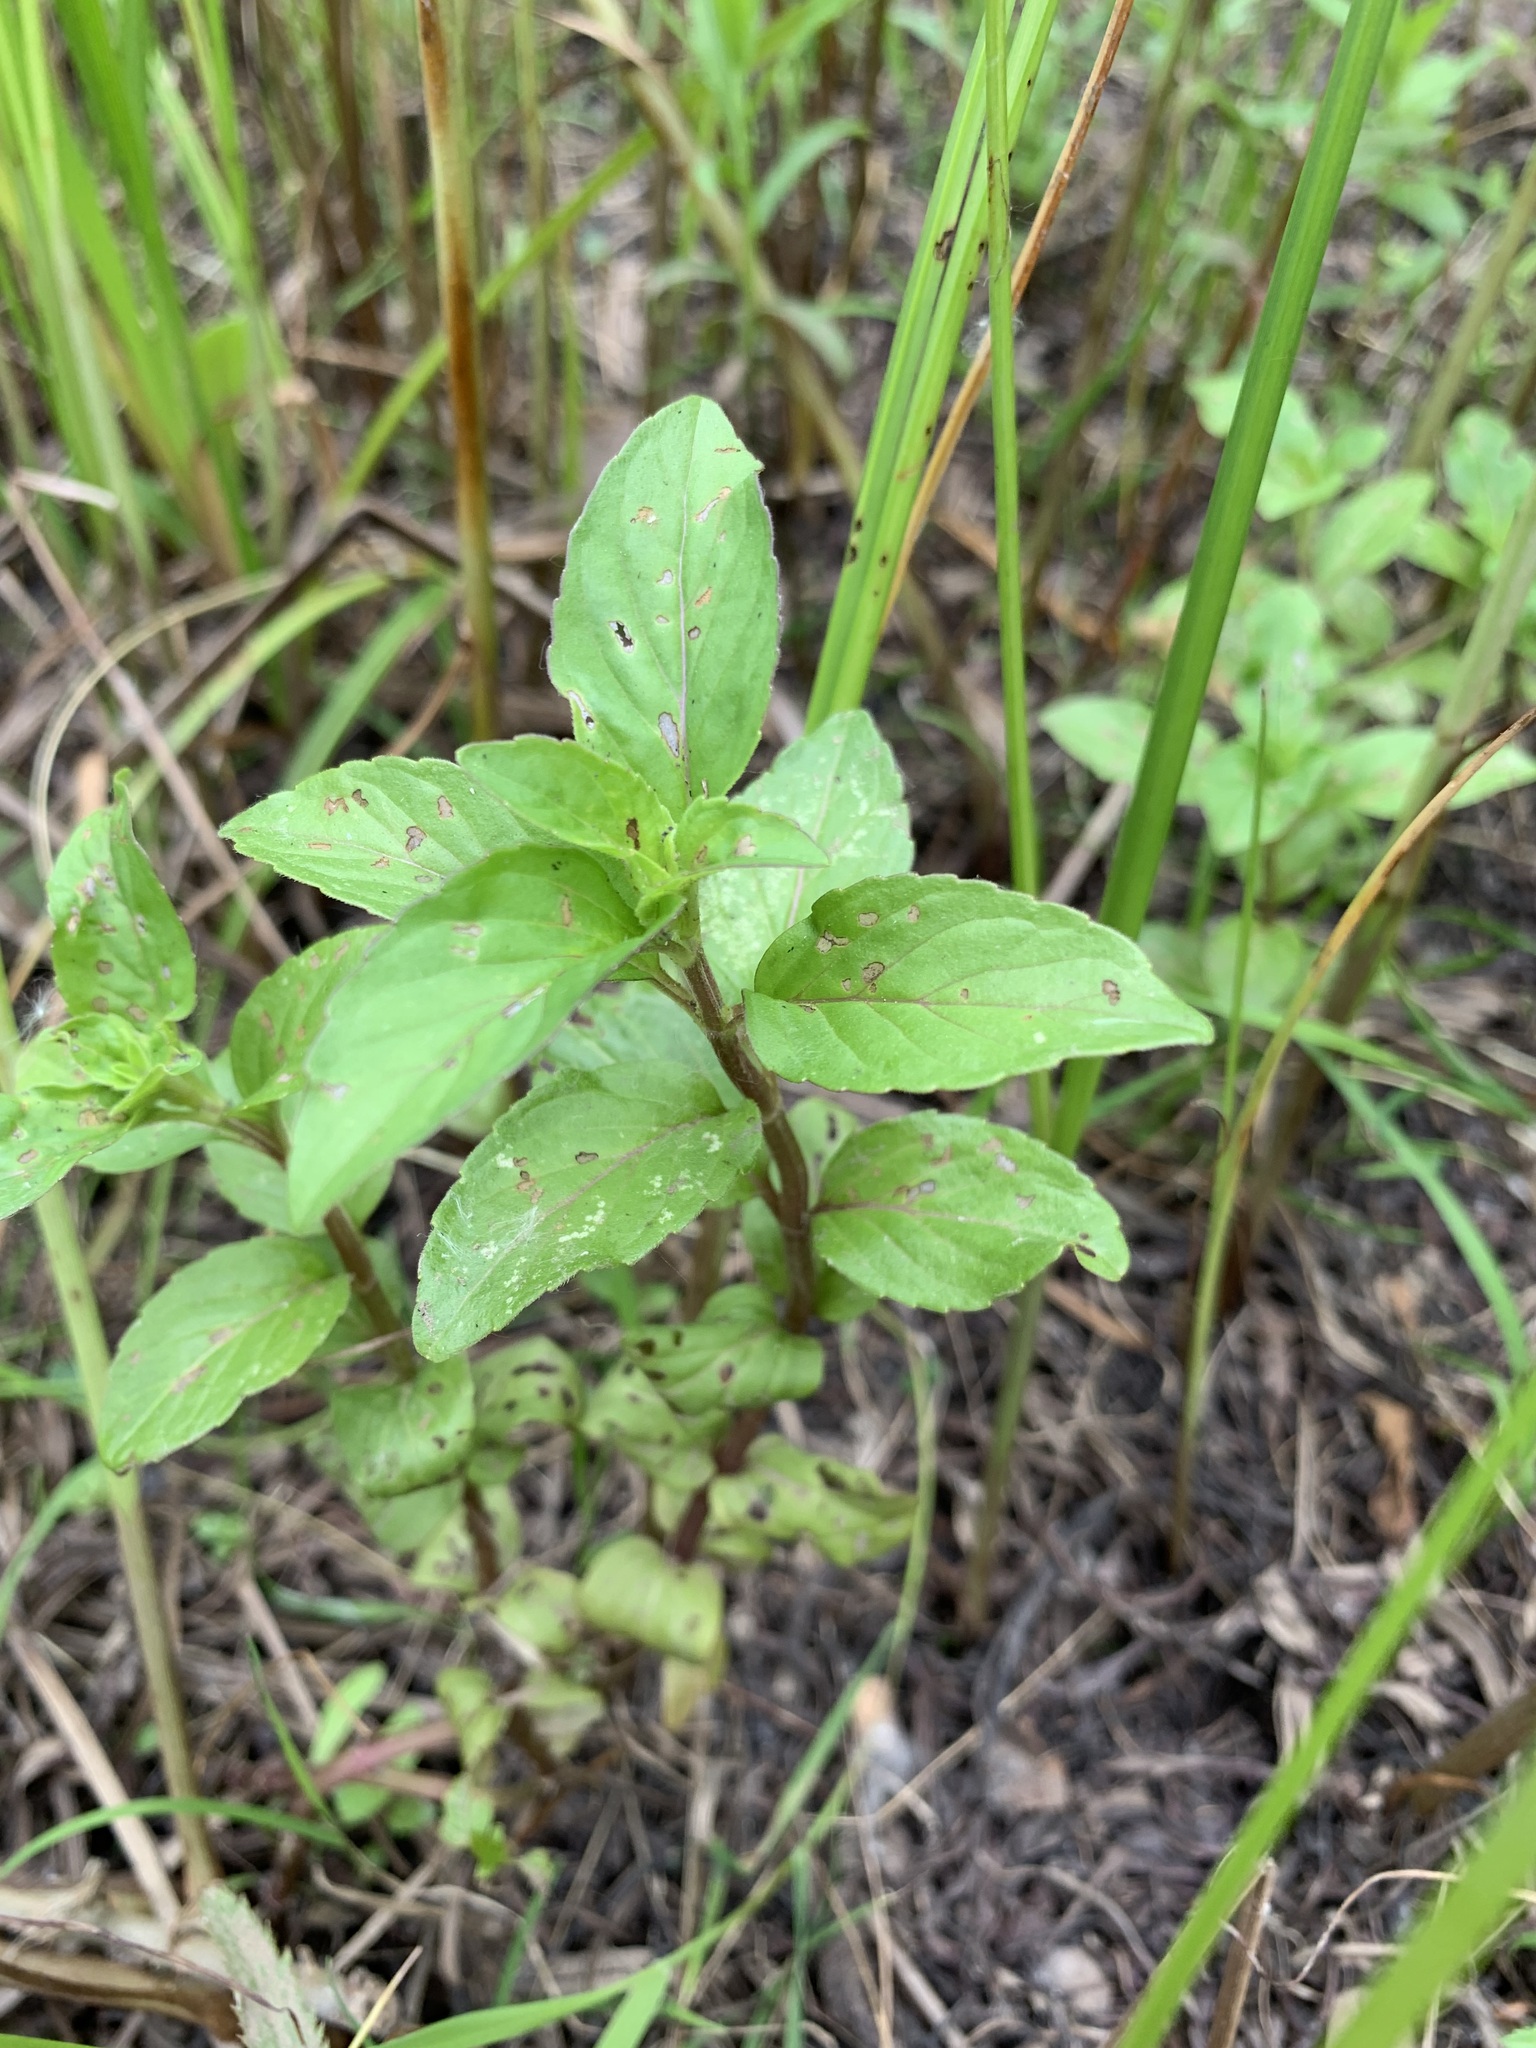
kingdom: Plantae
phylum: Tracheophyta
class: Magnoliopsida
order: Lamiales
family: Lamiaceae
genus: Mentha
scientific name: Mentha arvensis
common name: Corn mint
